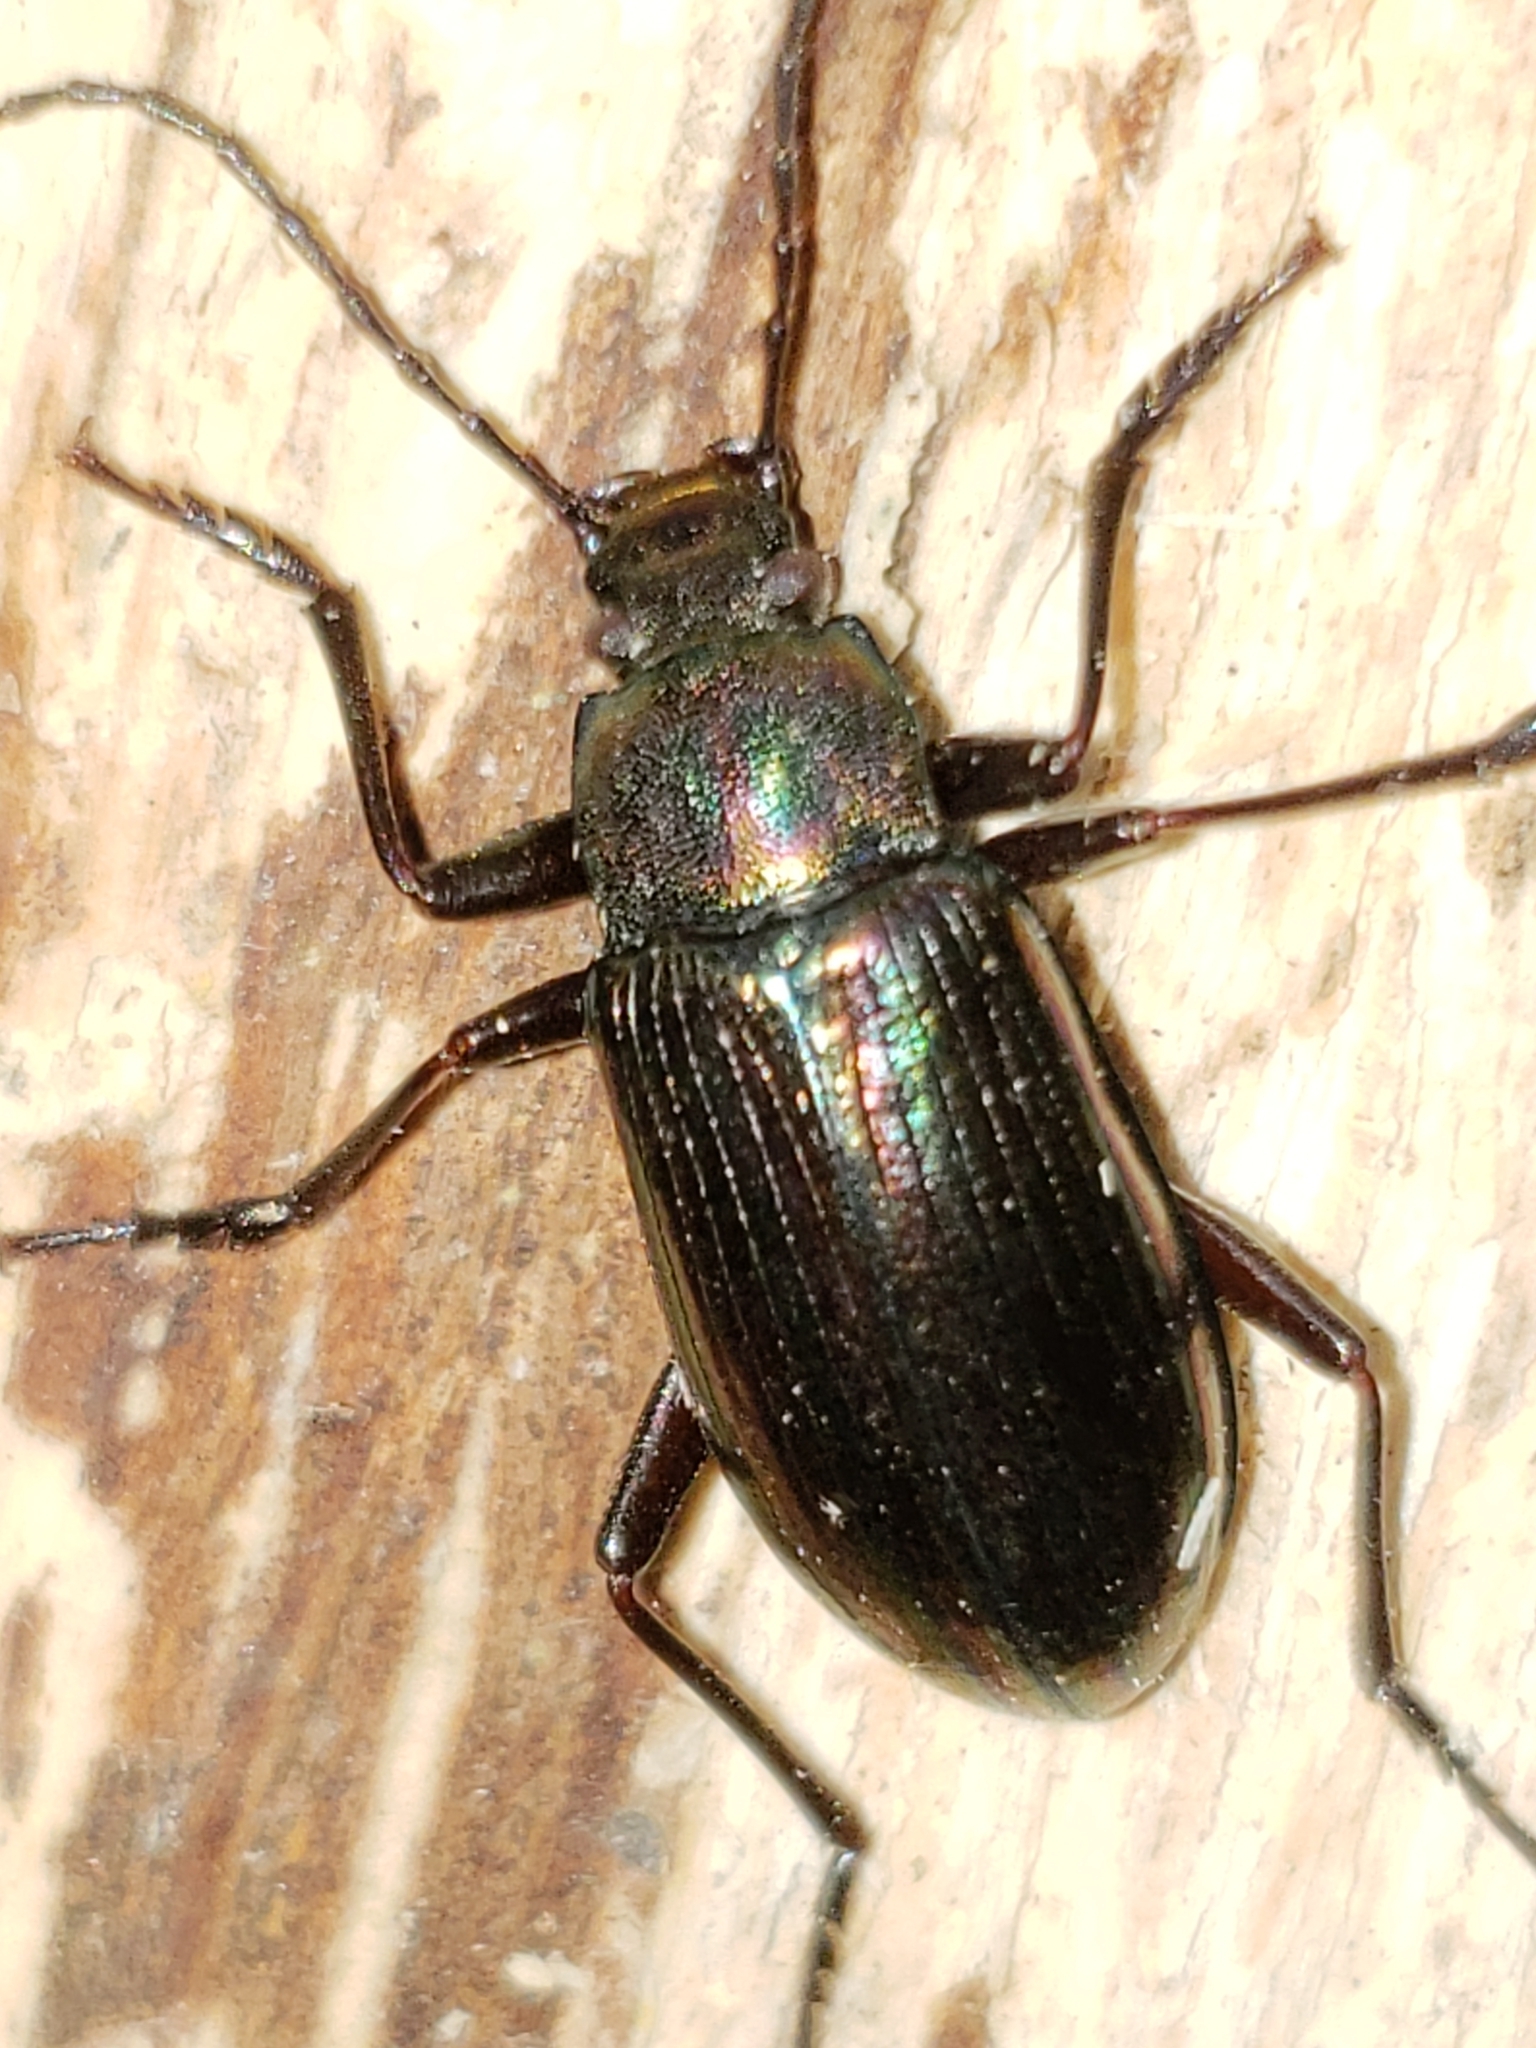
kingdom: Animalia
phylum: Arthropoda
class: Insecta
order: Coleoptera
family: Tenebrionidae
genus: Tarpela
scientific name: Tarpela micans
